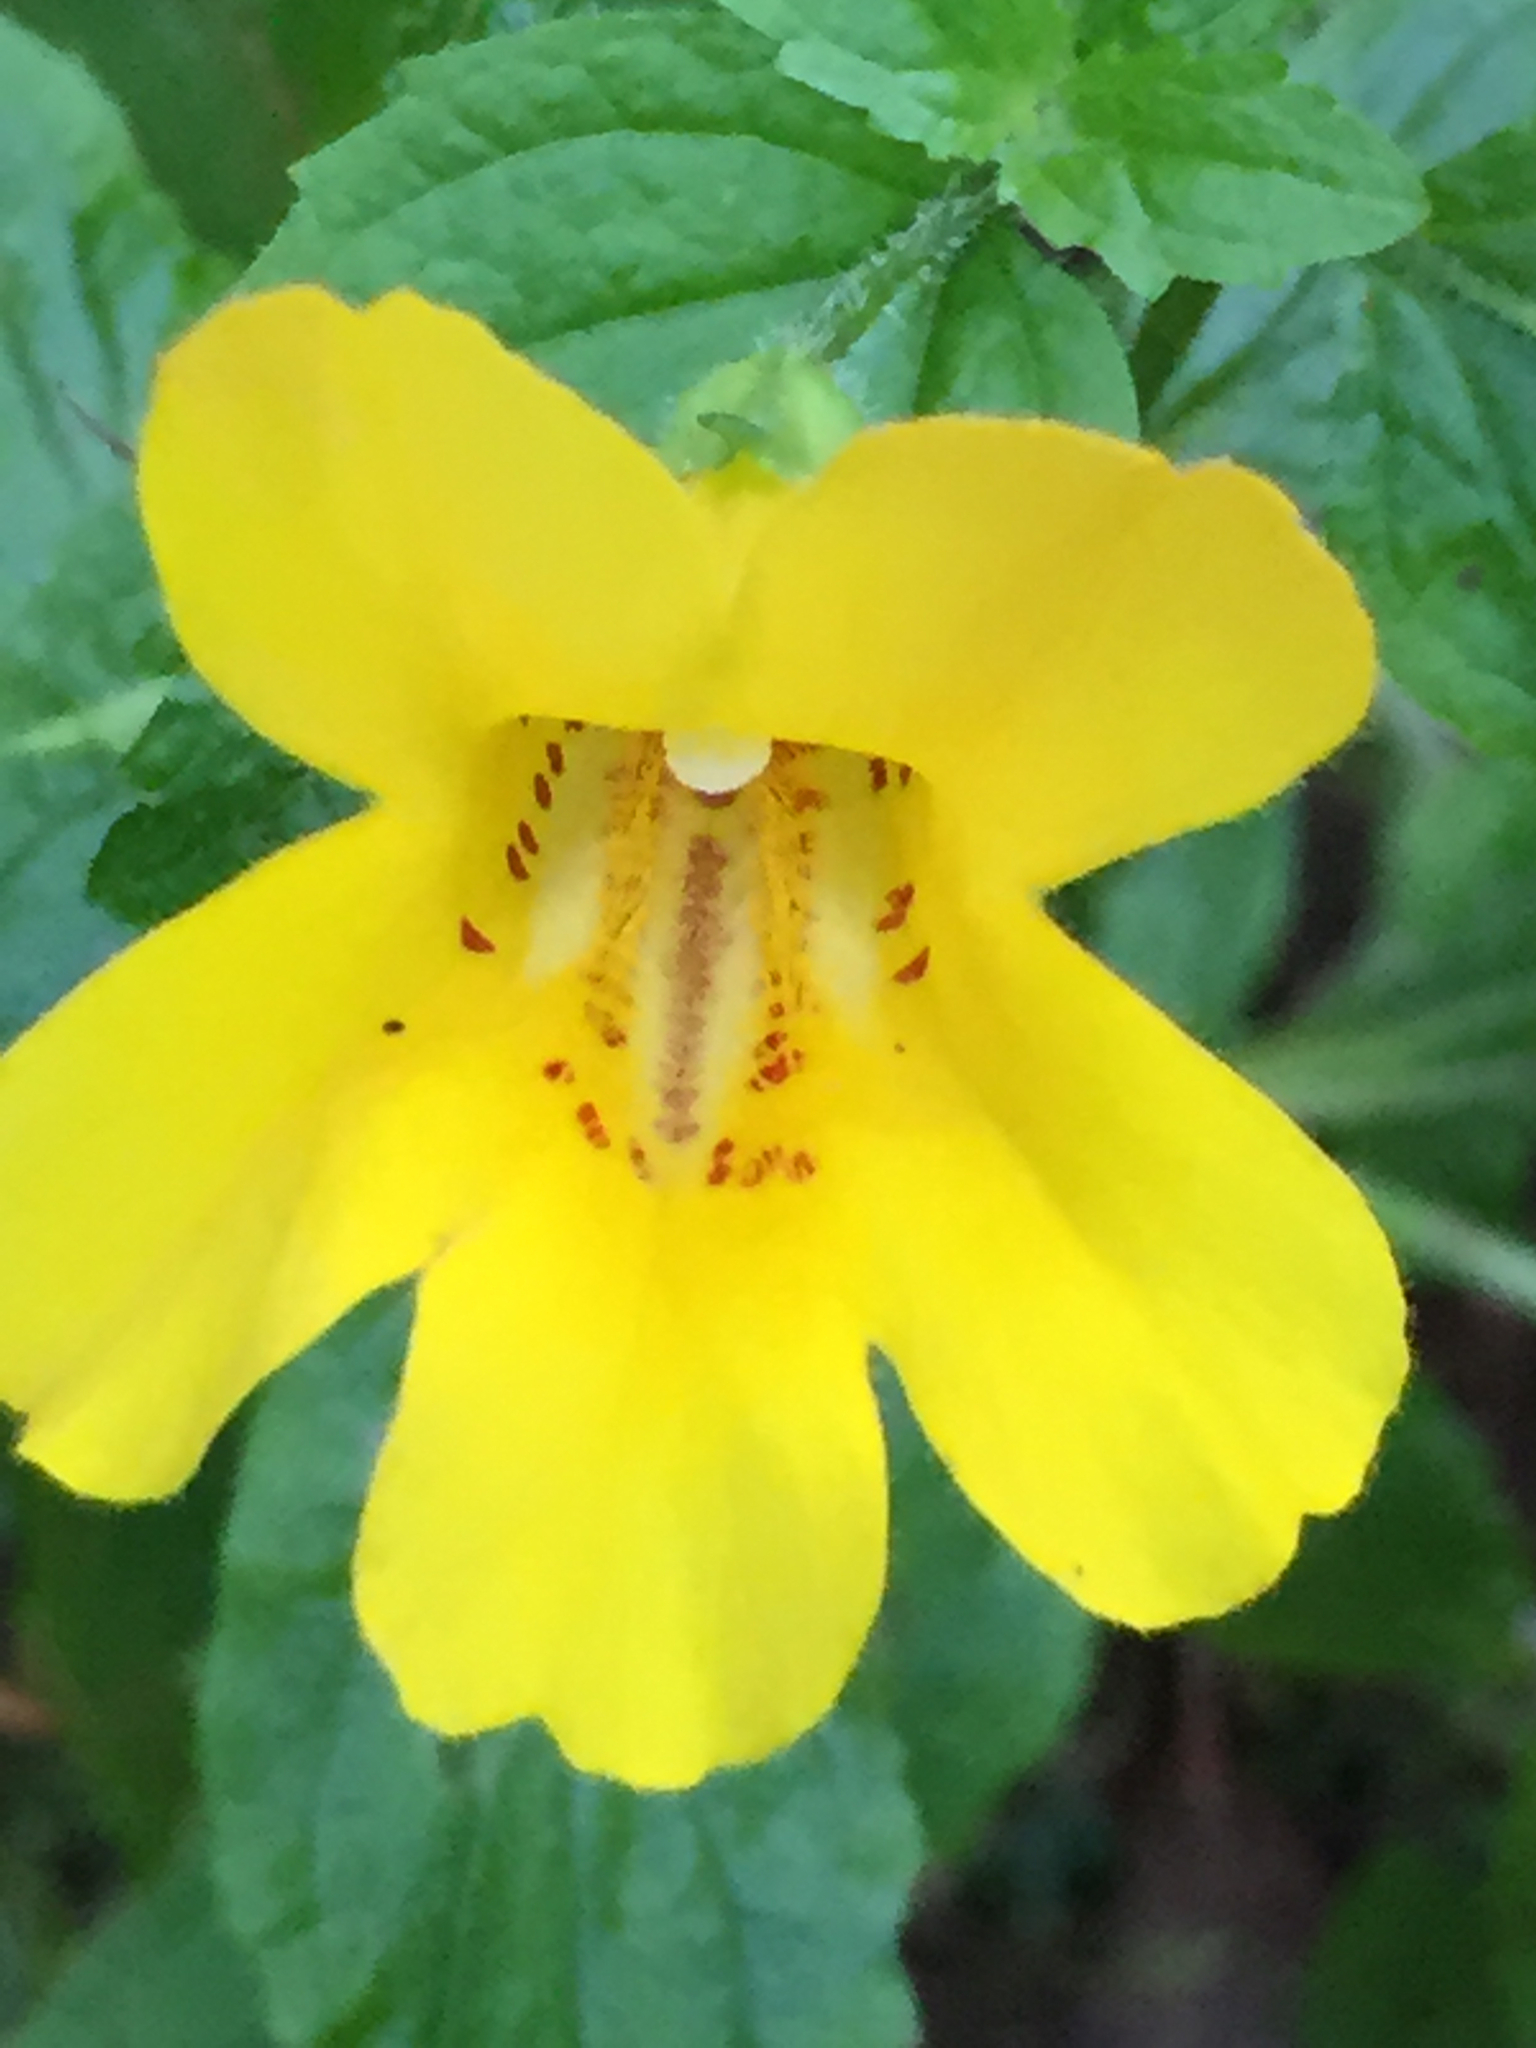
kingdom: Plantae
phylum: Tracheophyta
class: Magnoliopsida
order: Lamiales
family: Phrymaceae
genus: Erythranthe
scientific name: Erythranthe dentata
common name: Coastal monkeyflower
